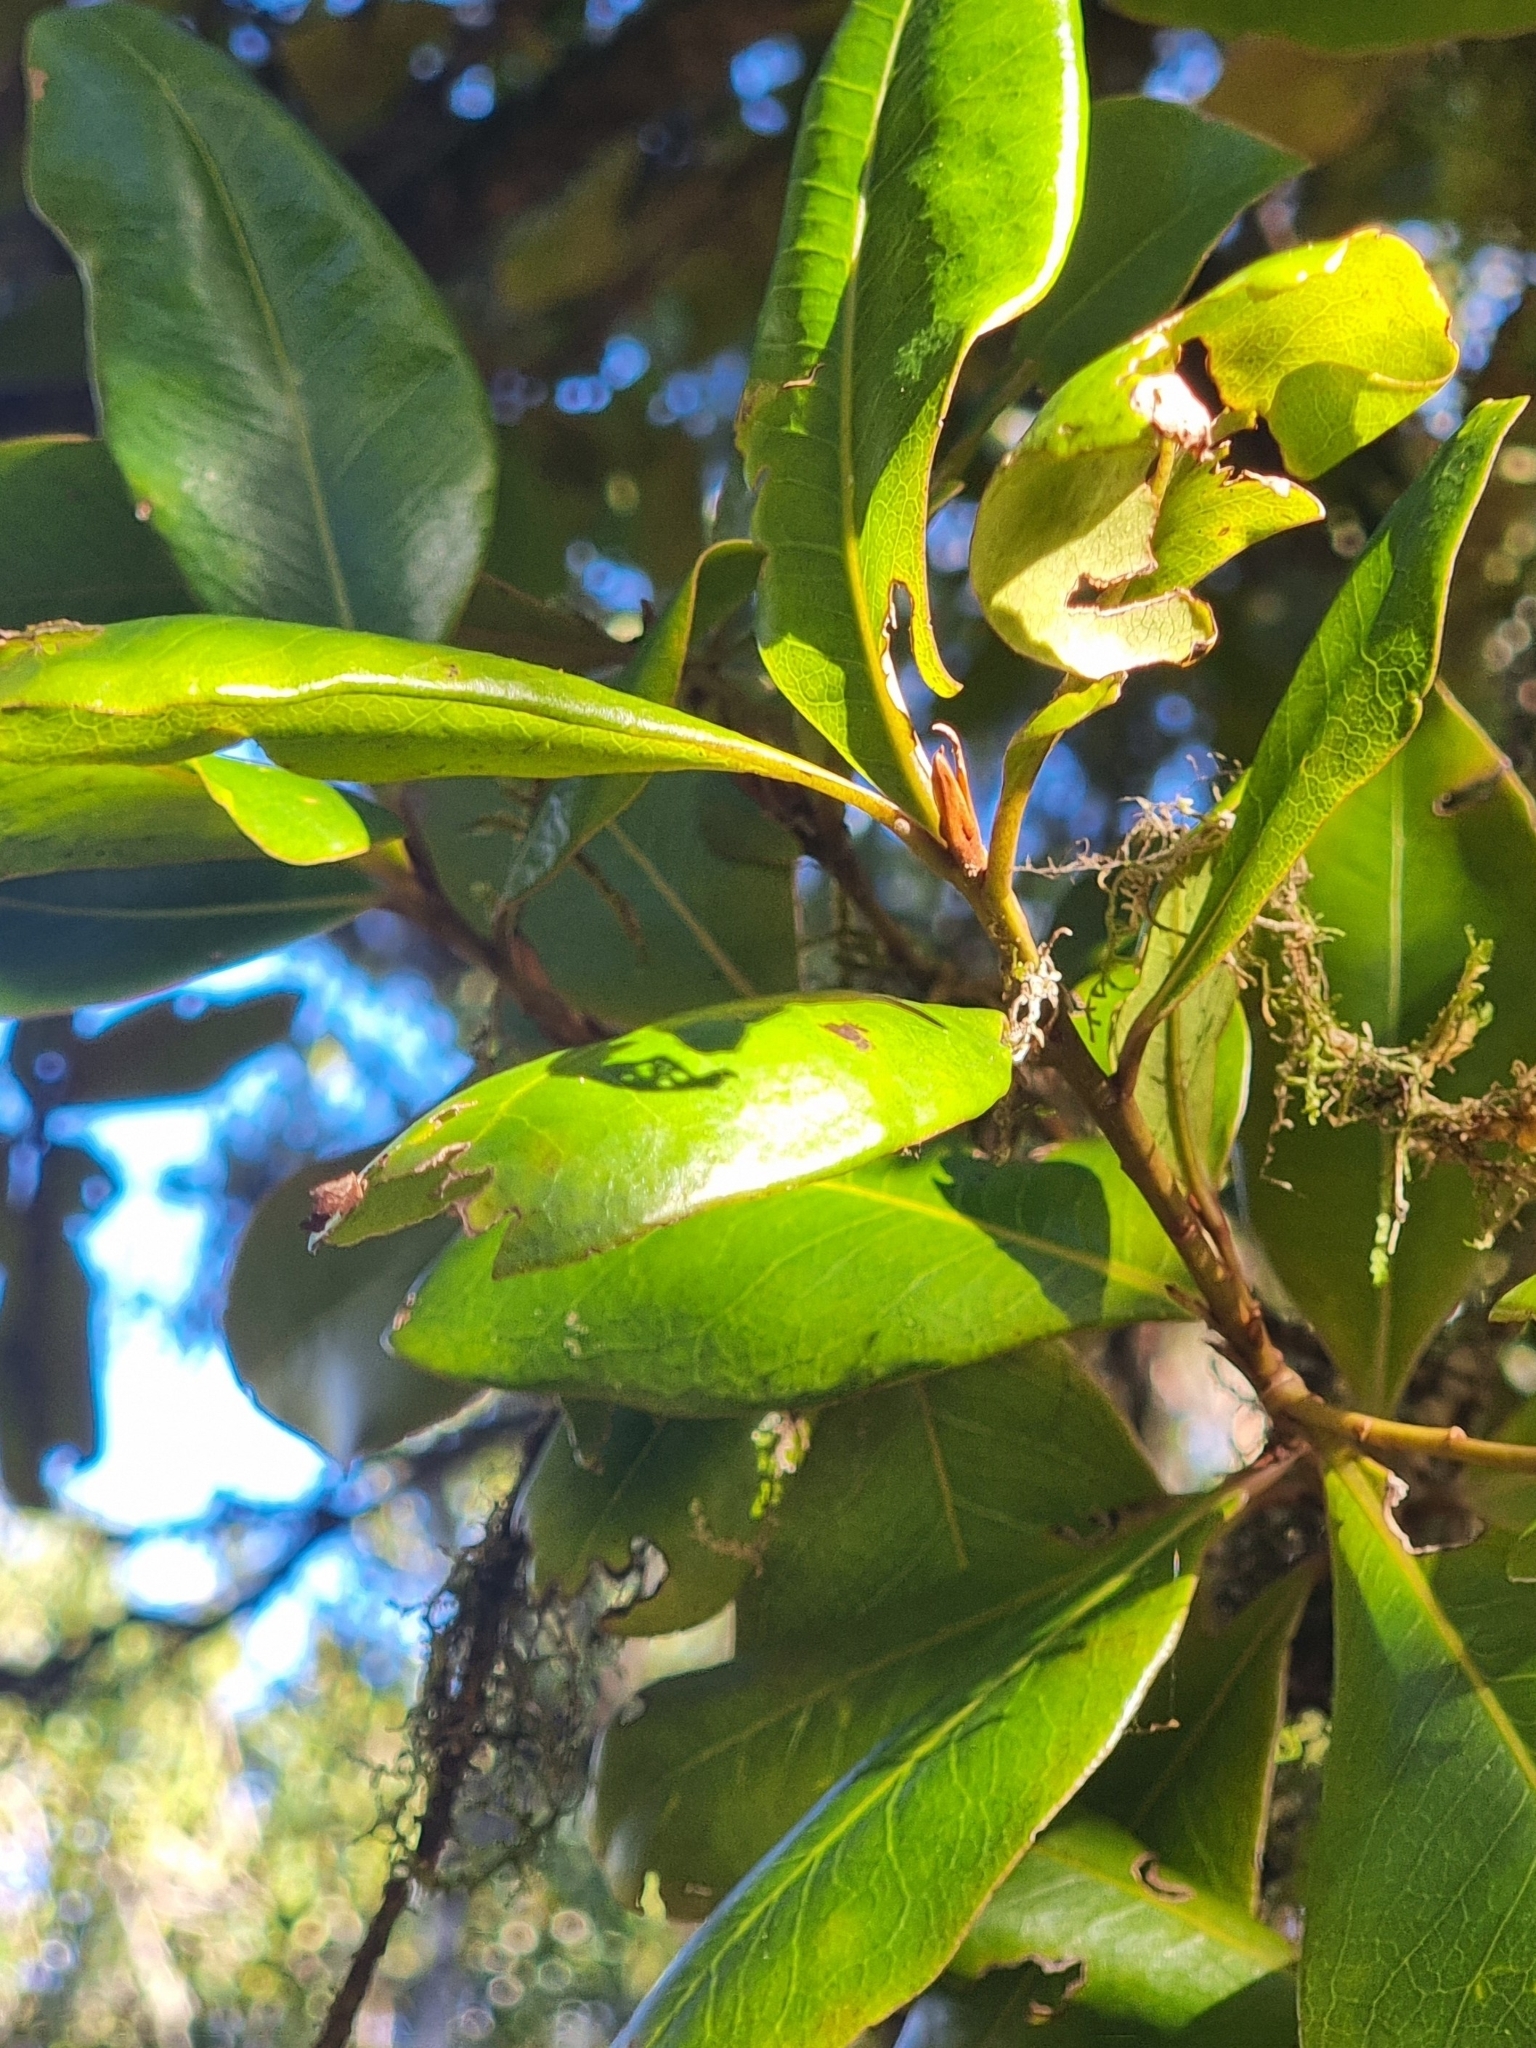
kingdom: Plantae
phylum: Tracheophyta
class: Magnoliopsida
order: Ericales
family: Primulaceae
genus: Heberdenia
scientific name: Heberdenia excelsa
